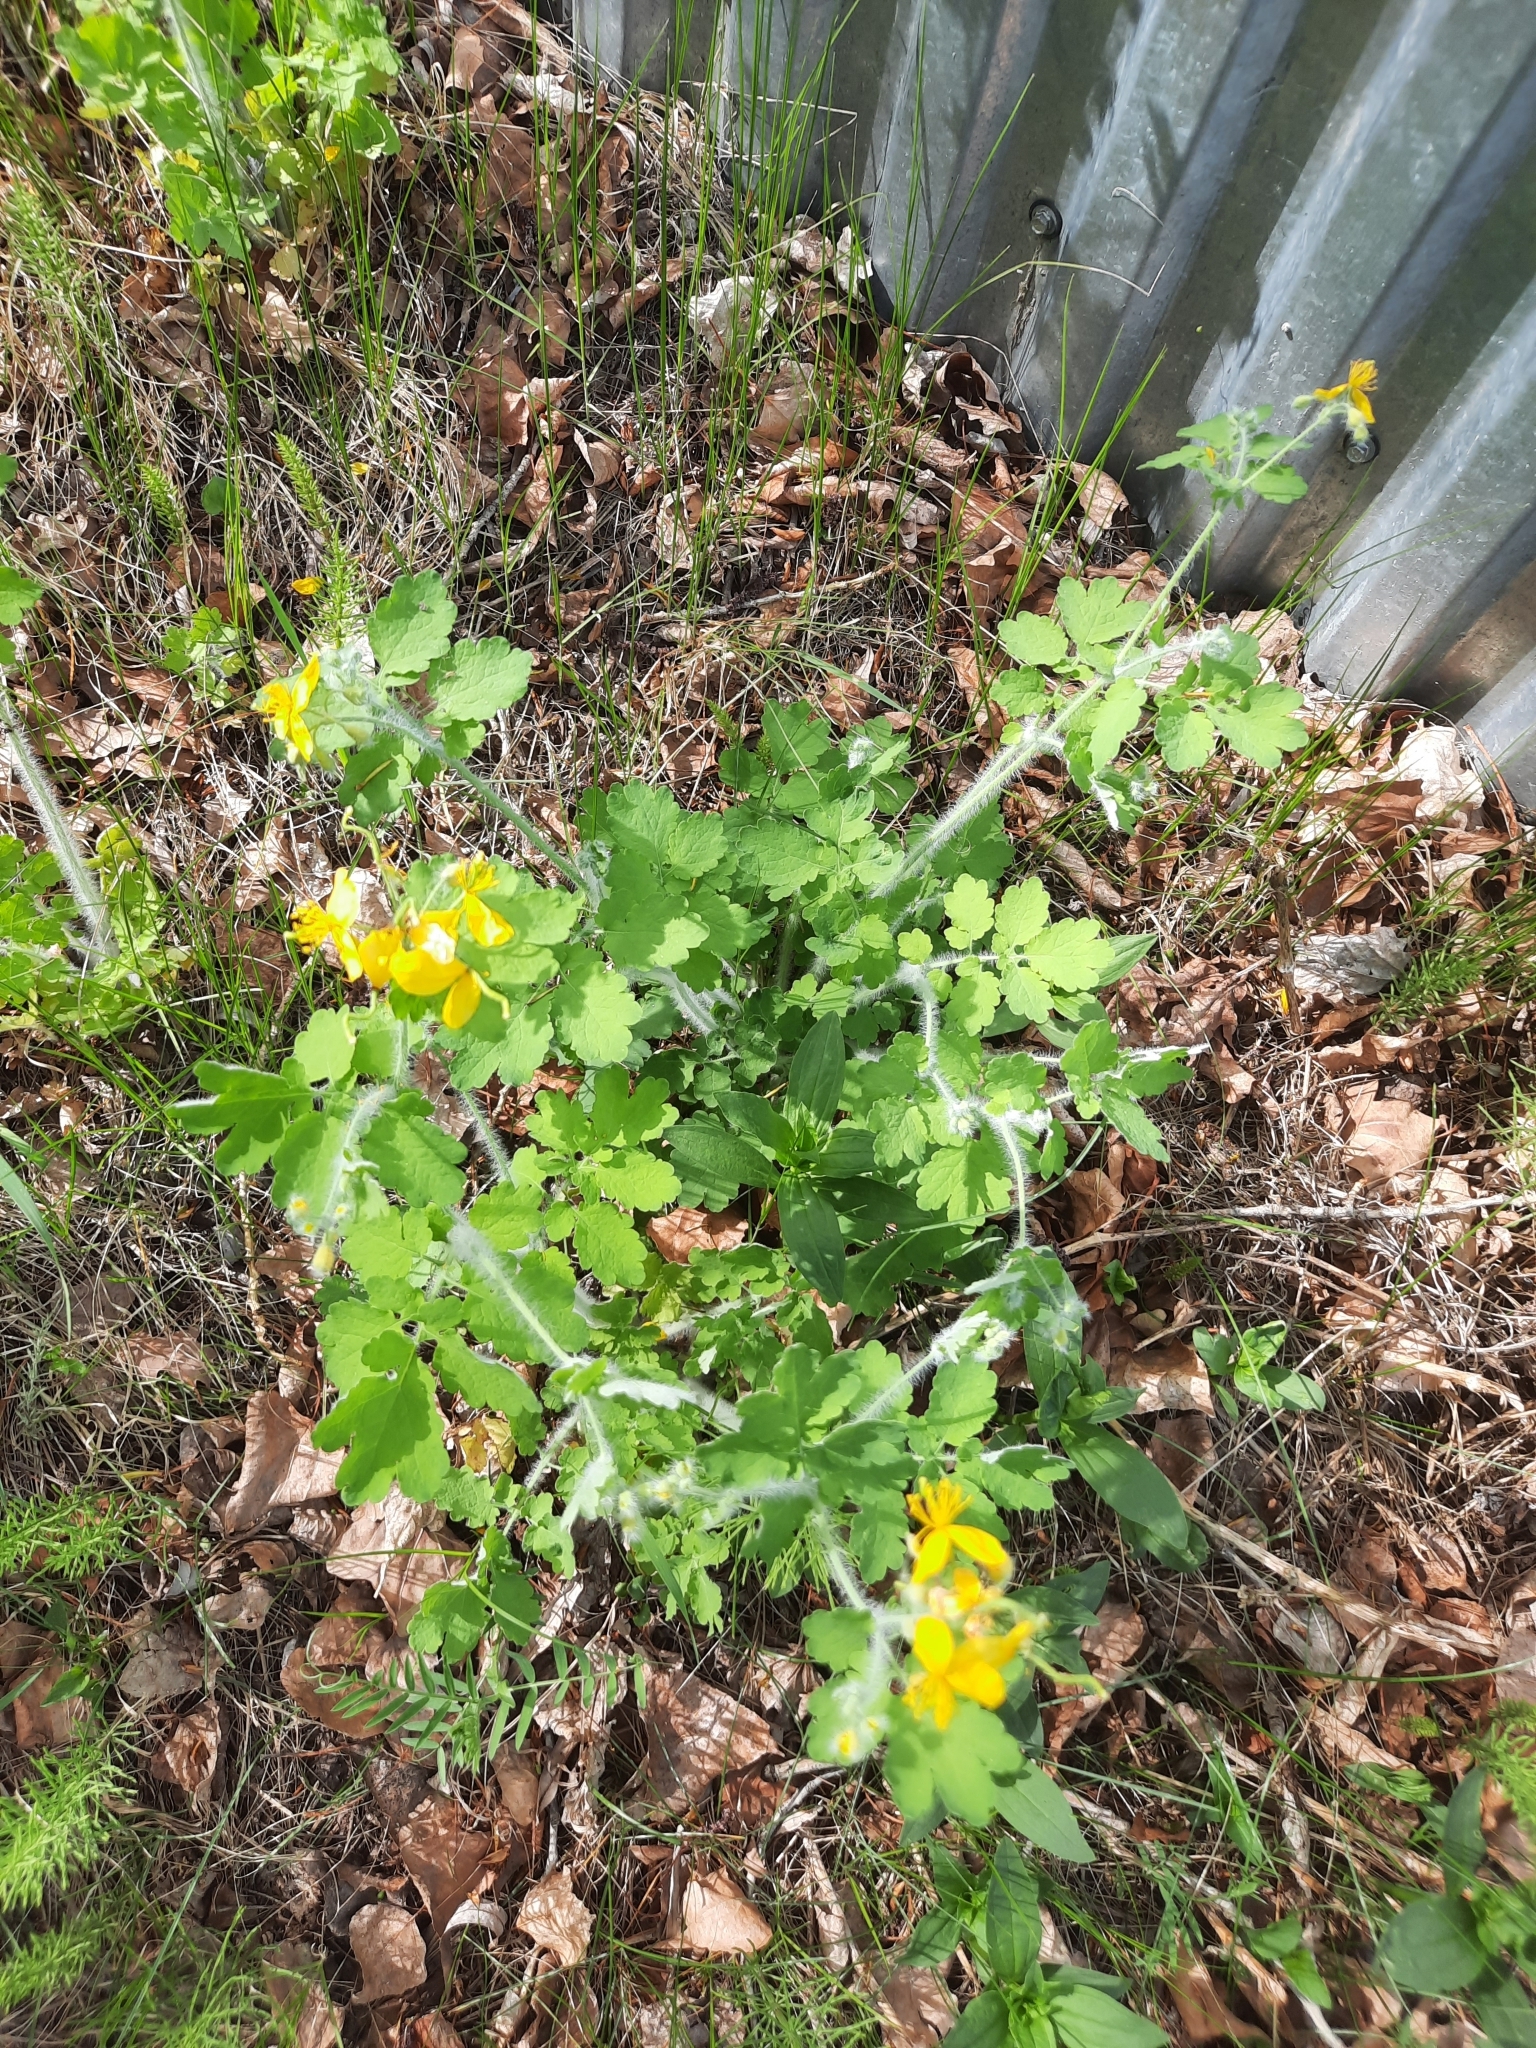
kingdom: Plantae
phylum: Tracheophyta
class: Magnoliopsida
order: Ranunculales
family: Papaveraceae
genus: Chelidonium
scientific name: Chelidonium majus
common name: Greater celandine
